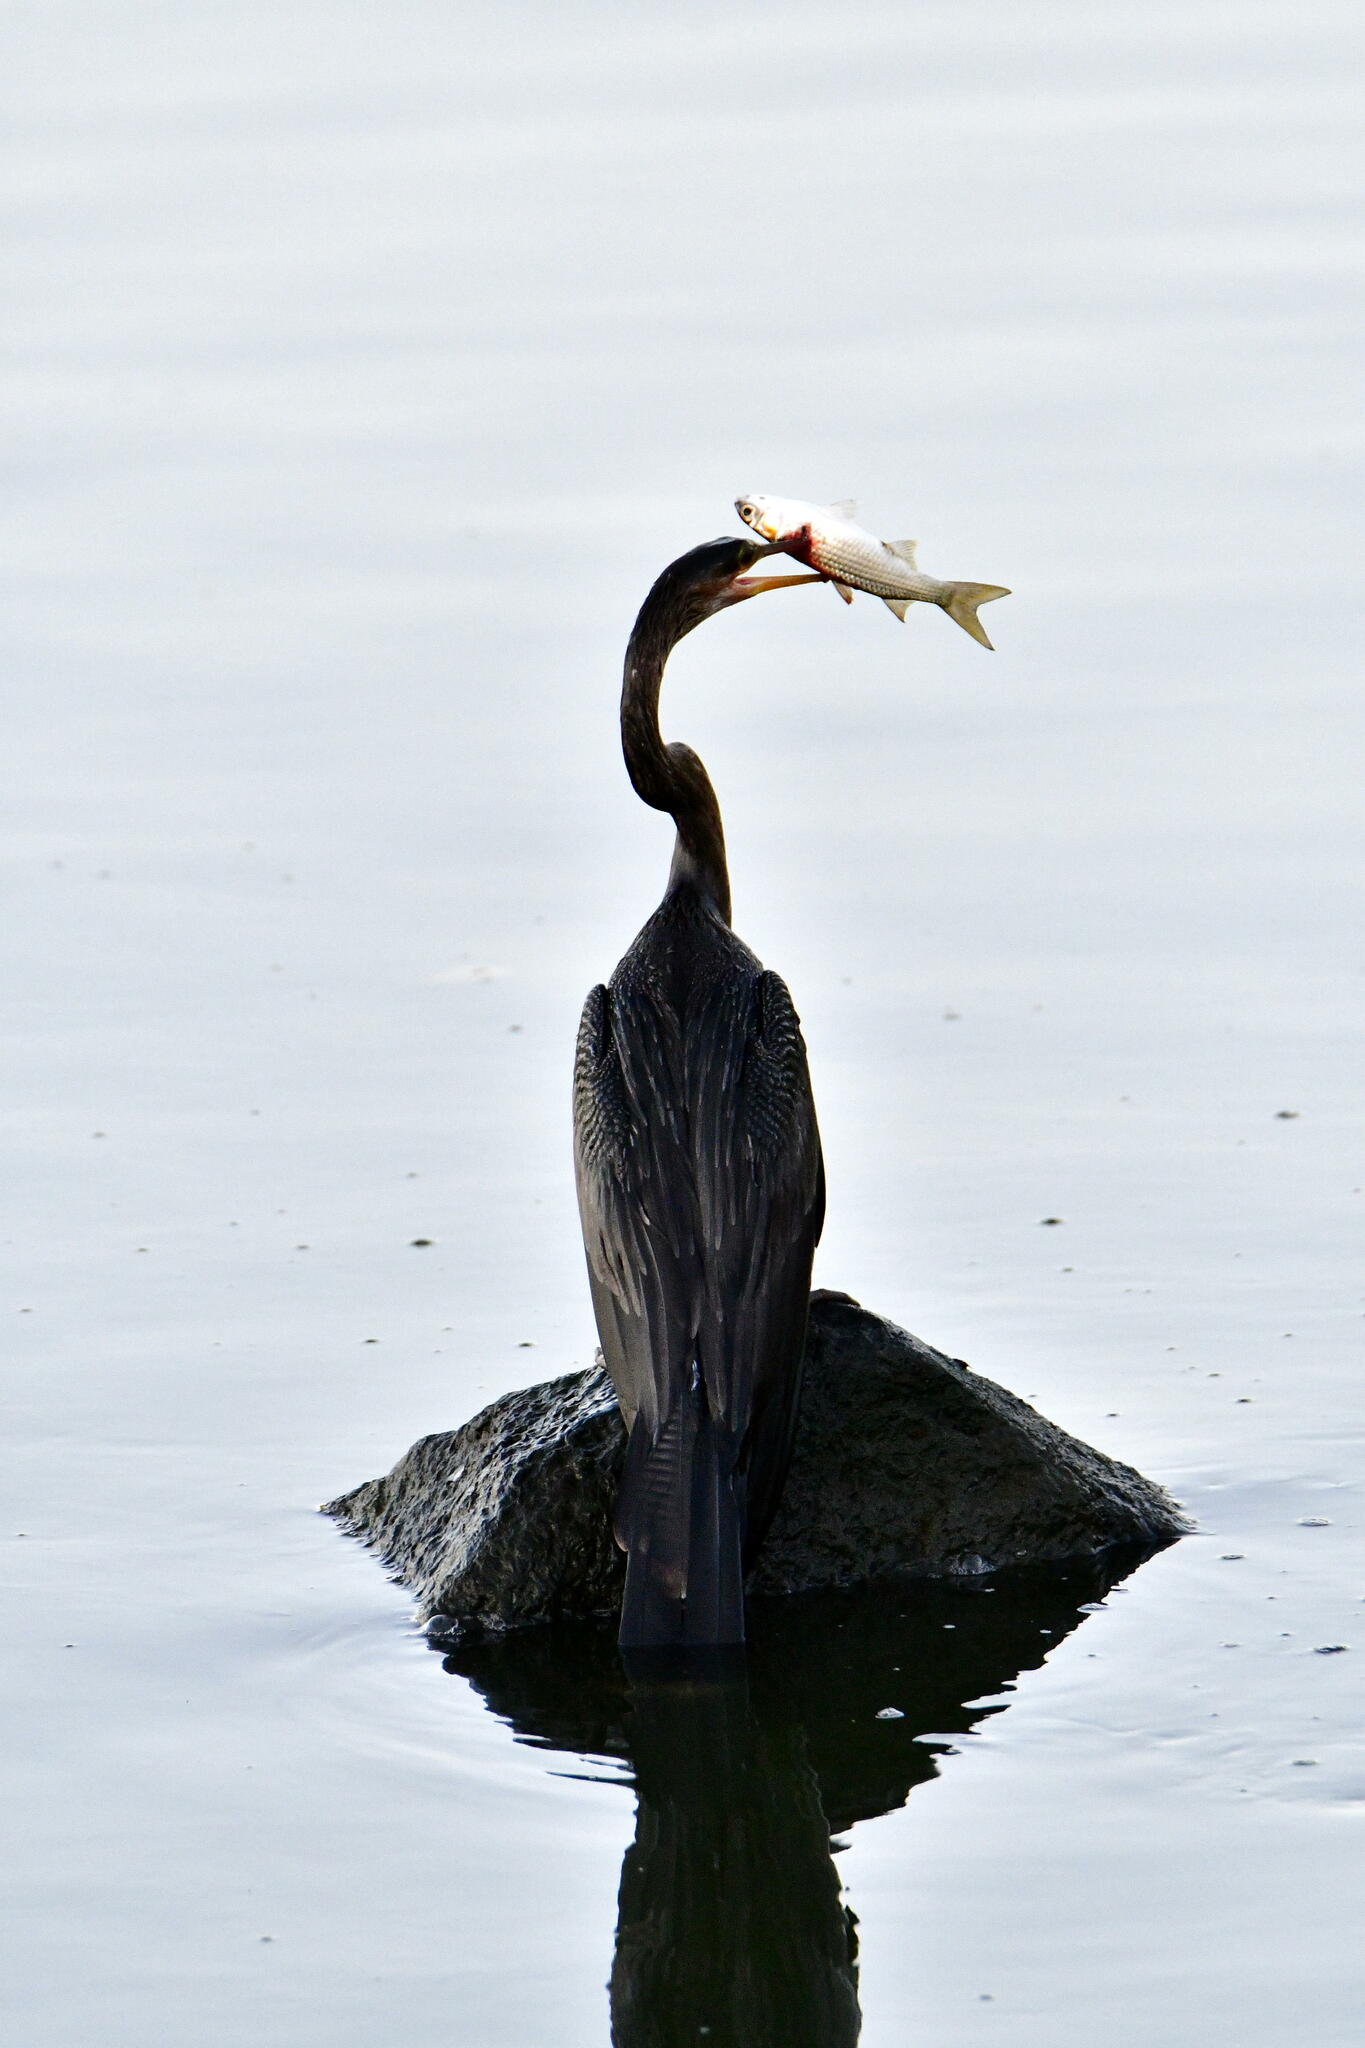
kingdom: Animalia
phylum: Chordata
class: Aves
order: Suliformes
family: Anhingidae
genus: Anhinga
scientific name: Anhinga anhinga
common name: Anhinga
